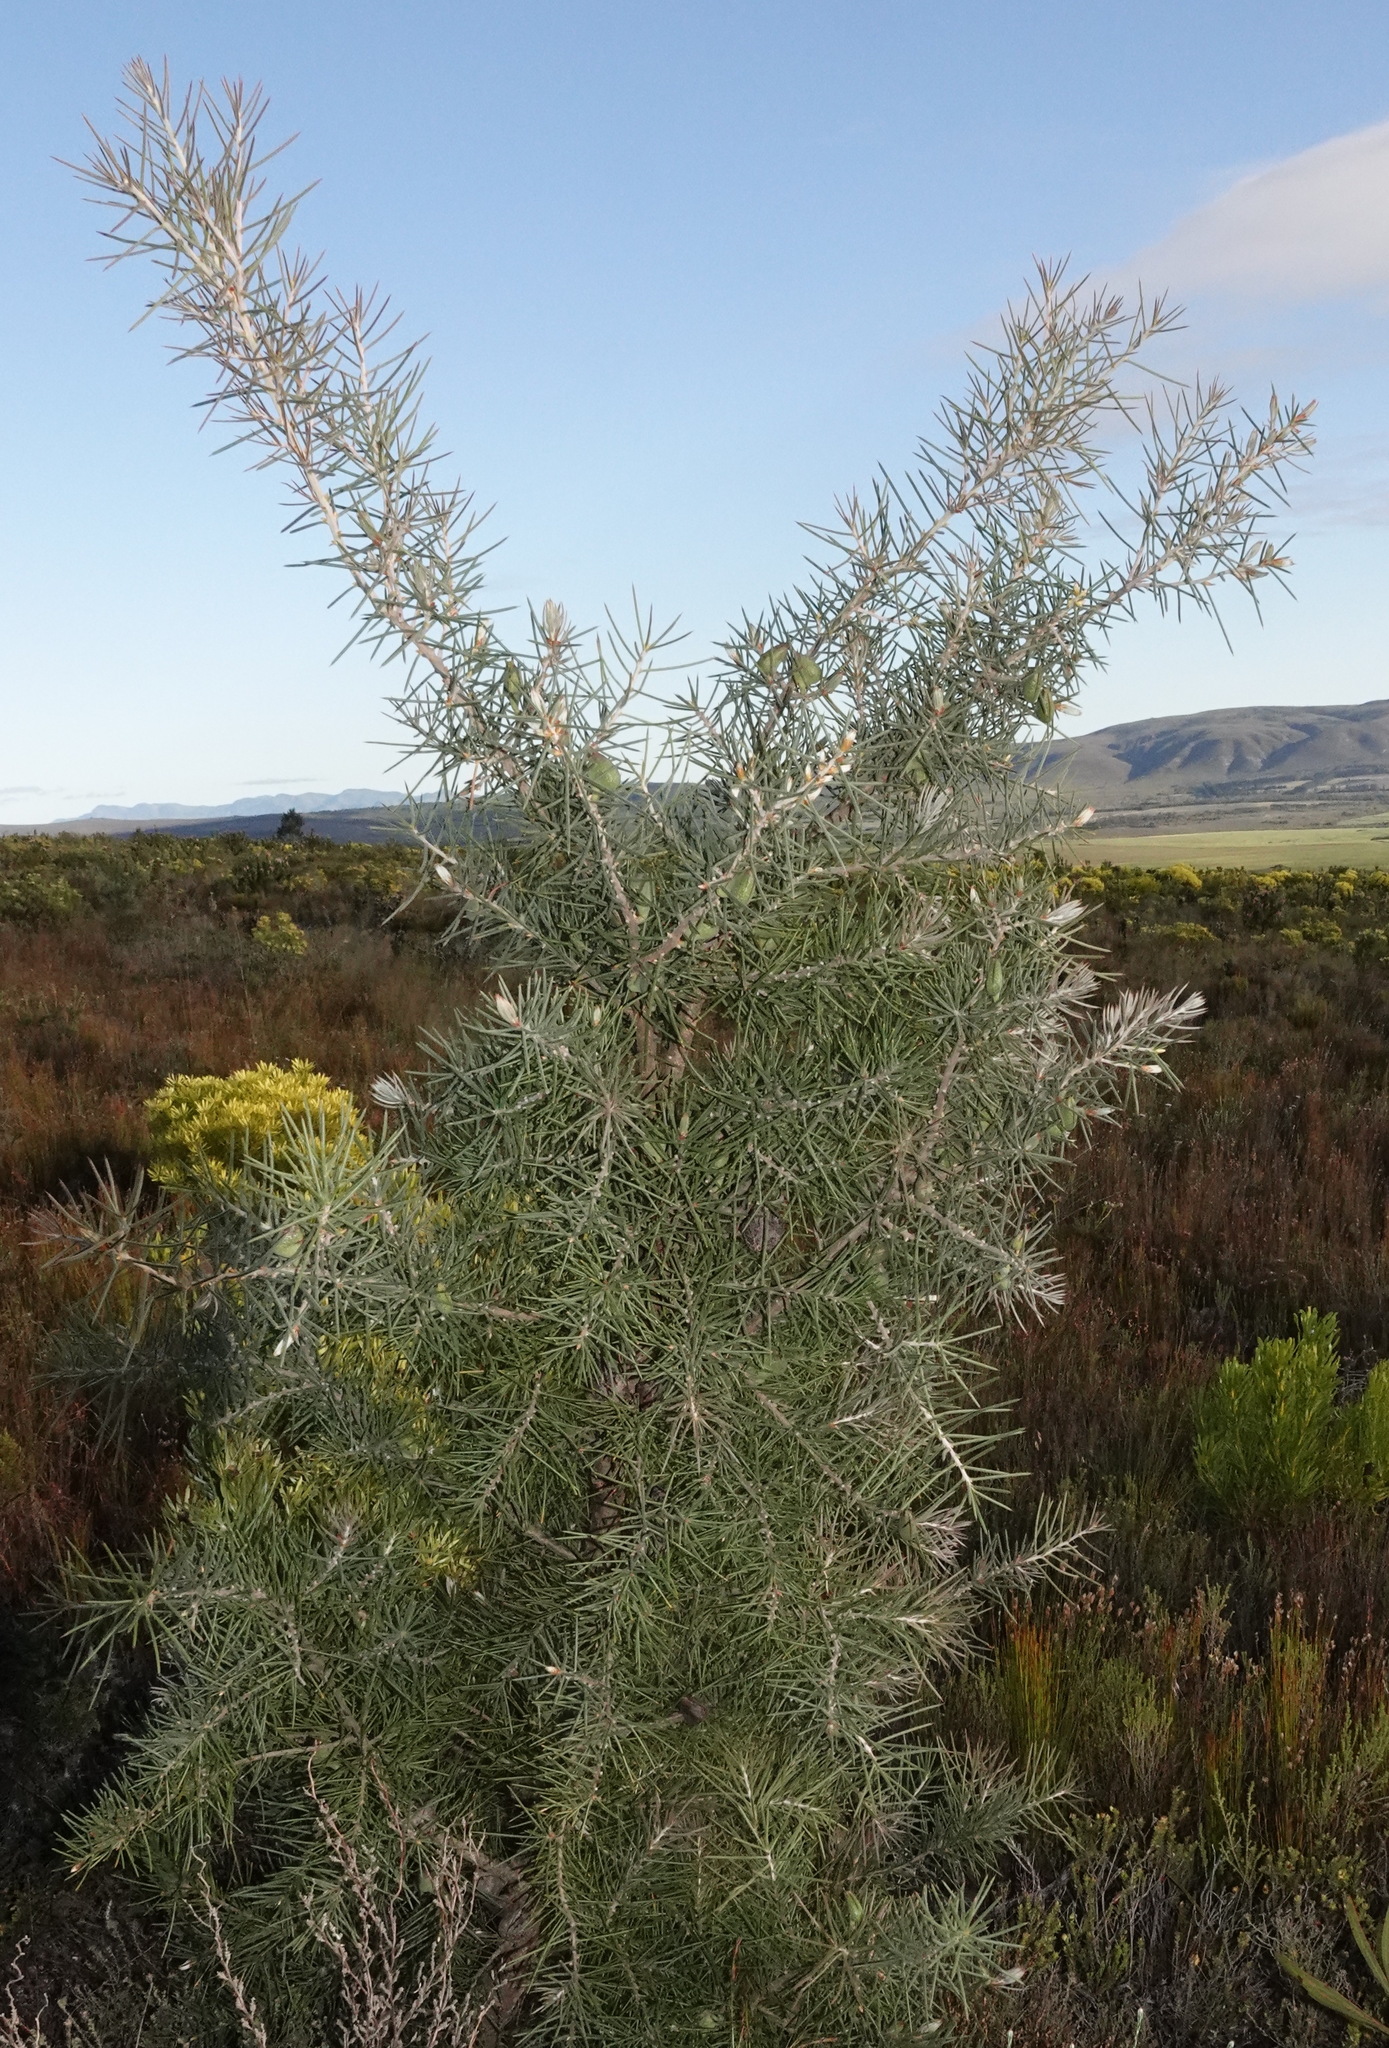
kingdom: Plantae
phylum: Tracheophyta
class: Magnoliopsida
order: Proteales
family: Proteaceae
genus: Hakea
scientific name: Hakea gibbosa
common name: Rock hakea
